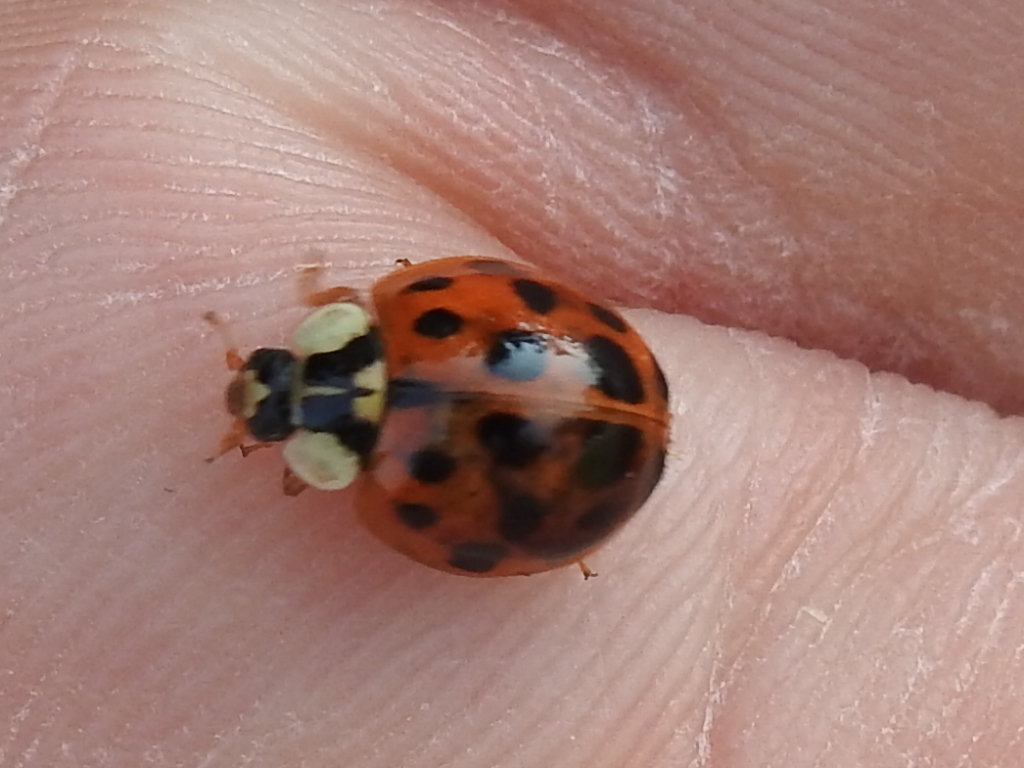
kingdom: Animalia
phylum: Arthropoda
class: Insecta
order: Coleoptera
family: Coccinellidae
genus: Harmonia
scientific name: Harmonia axyridis
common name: Harlequin ladybird
